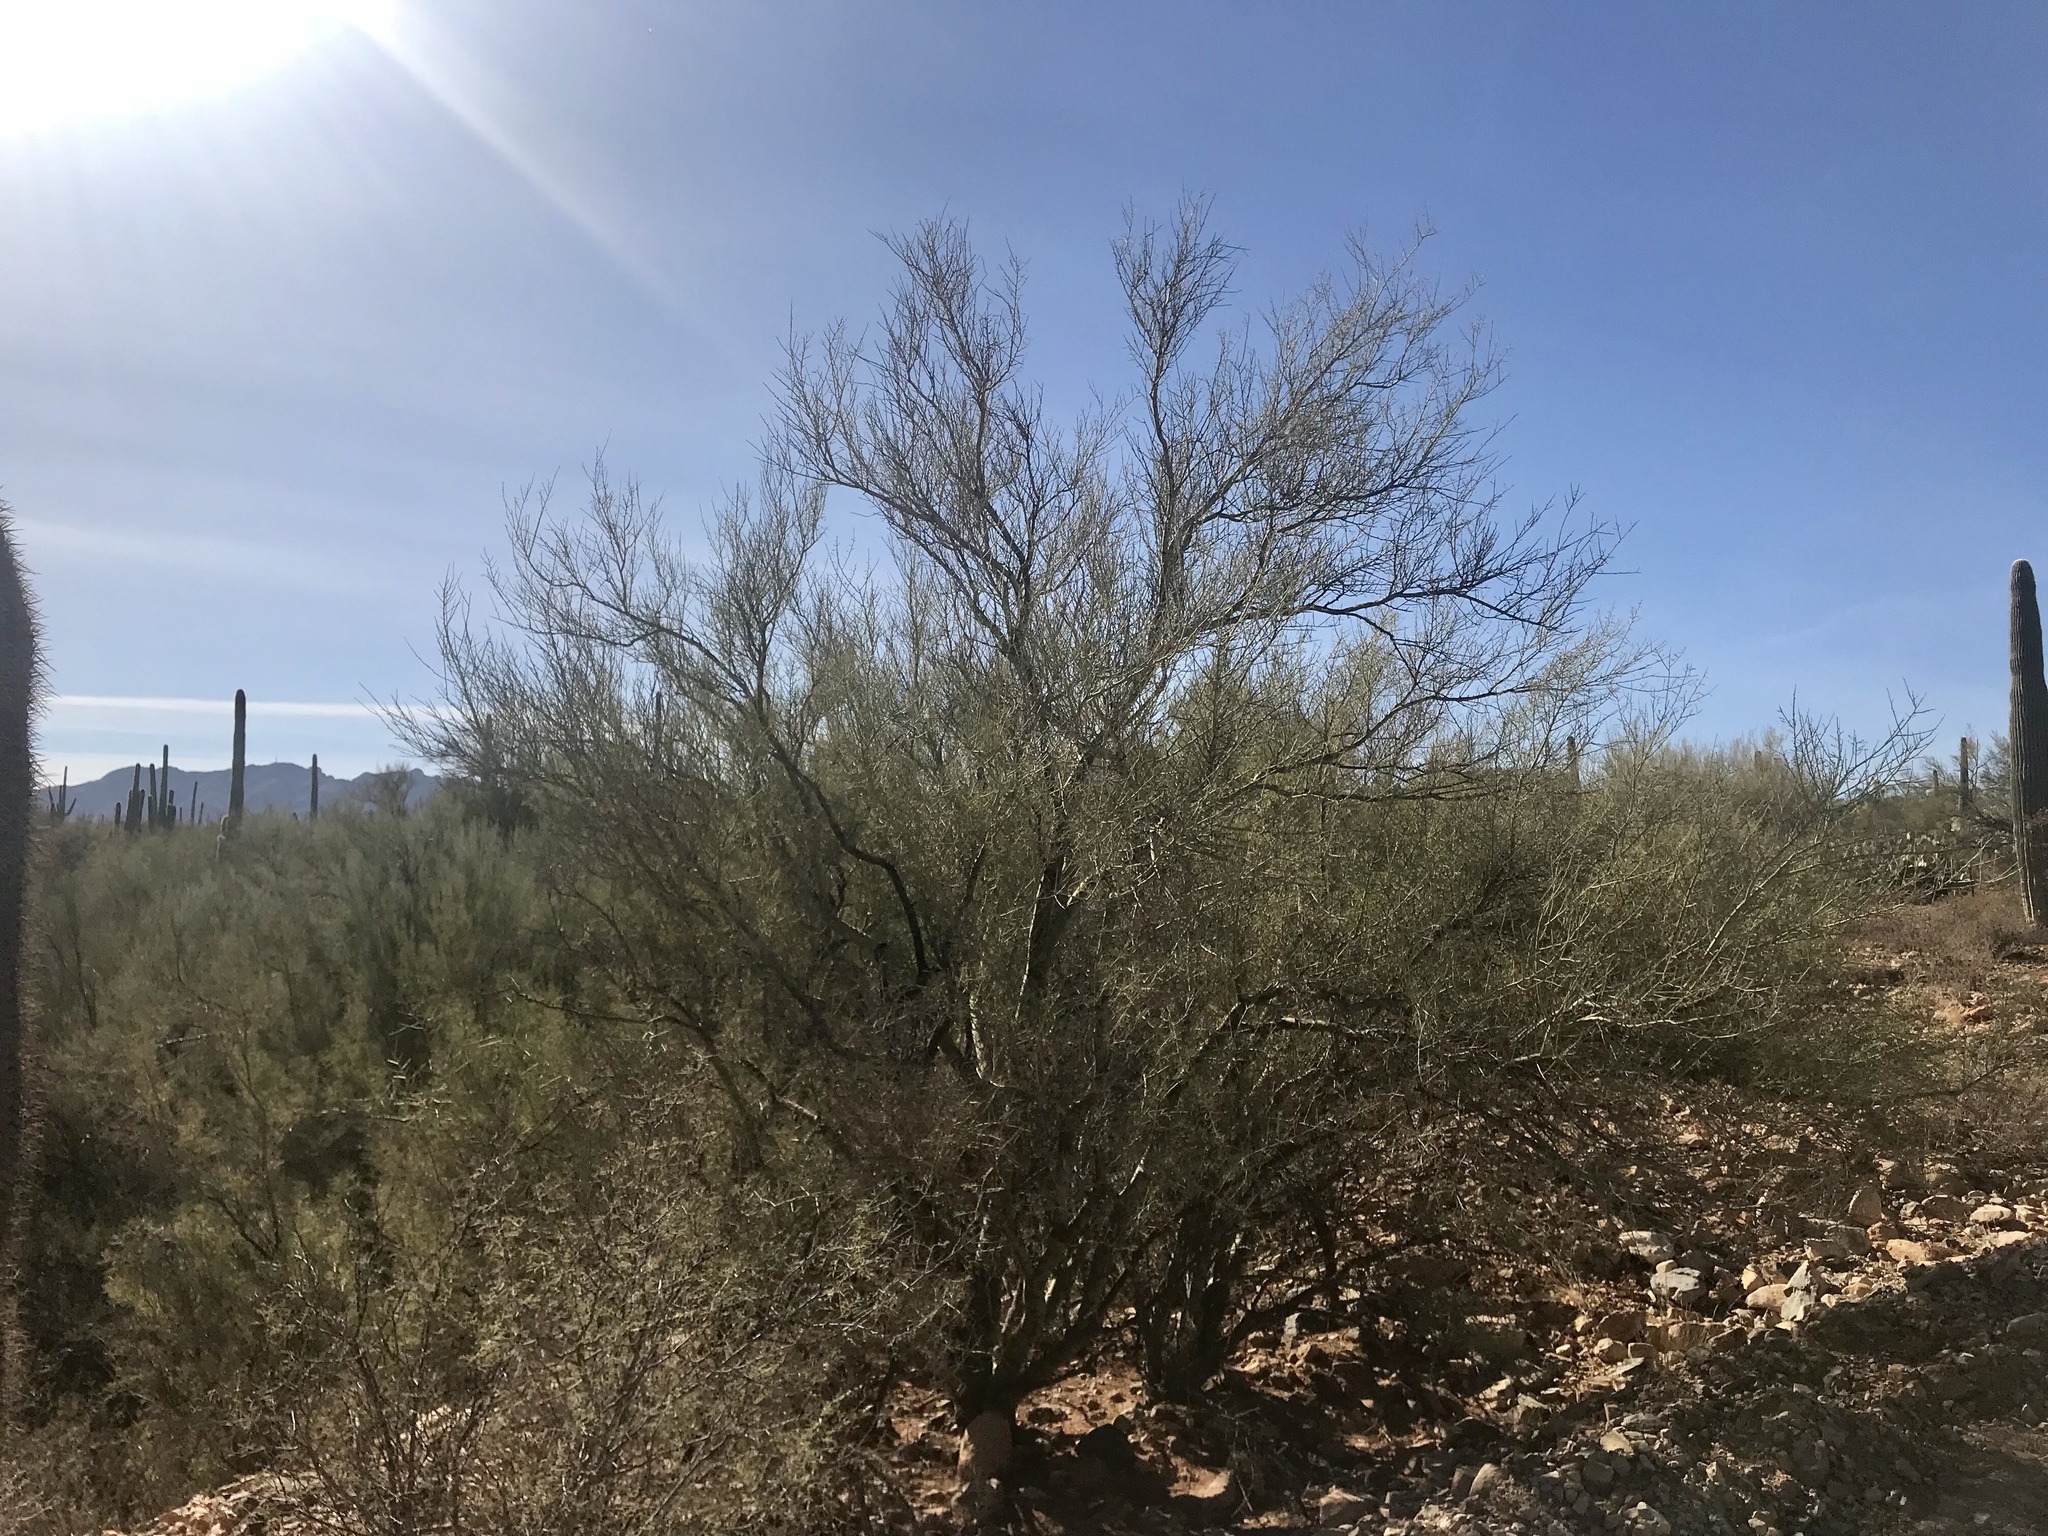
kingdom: Plantae
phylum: Tracheophyta
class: Magnoliopsida
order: Fabales
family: Fabaceae
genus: Parkinsonia
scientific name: Parkinsonia microphylla
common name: Yellow paloverde
